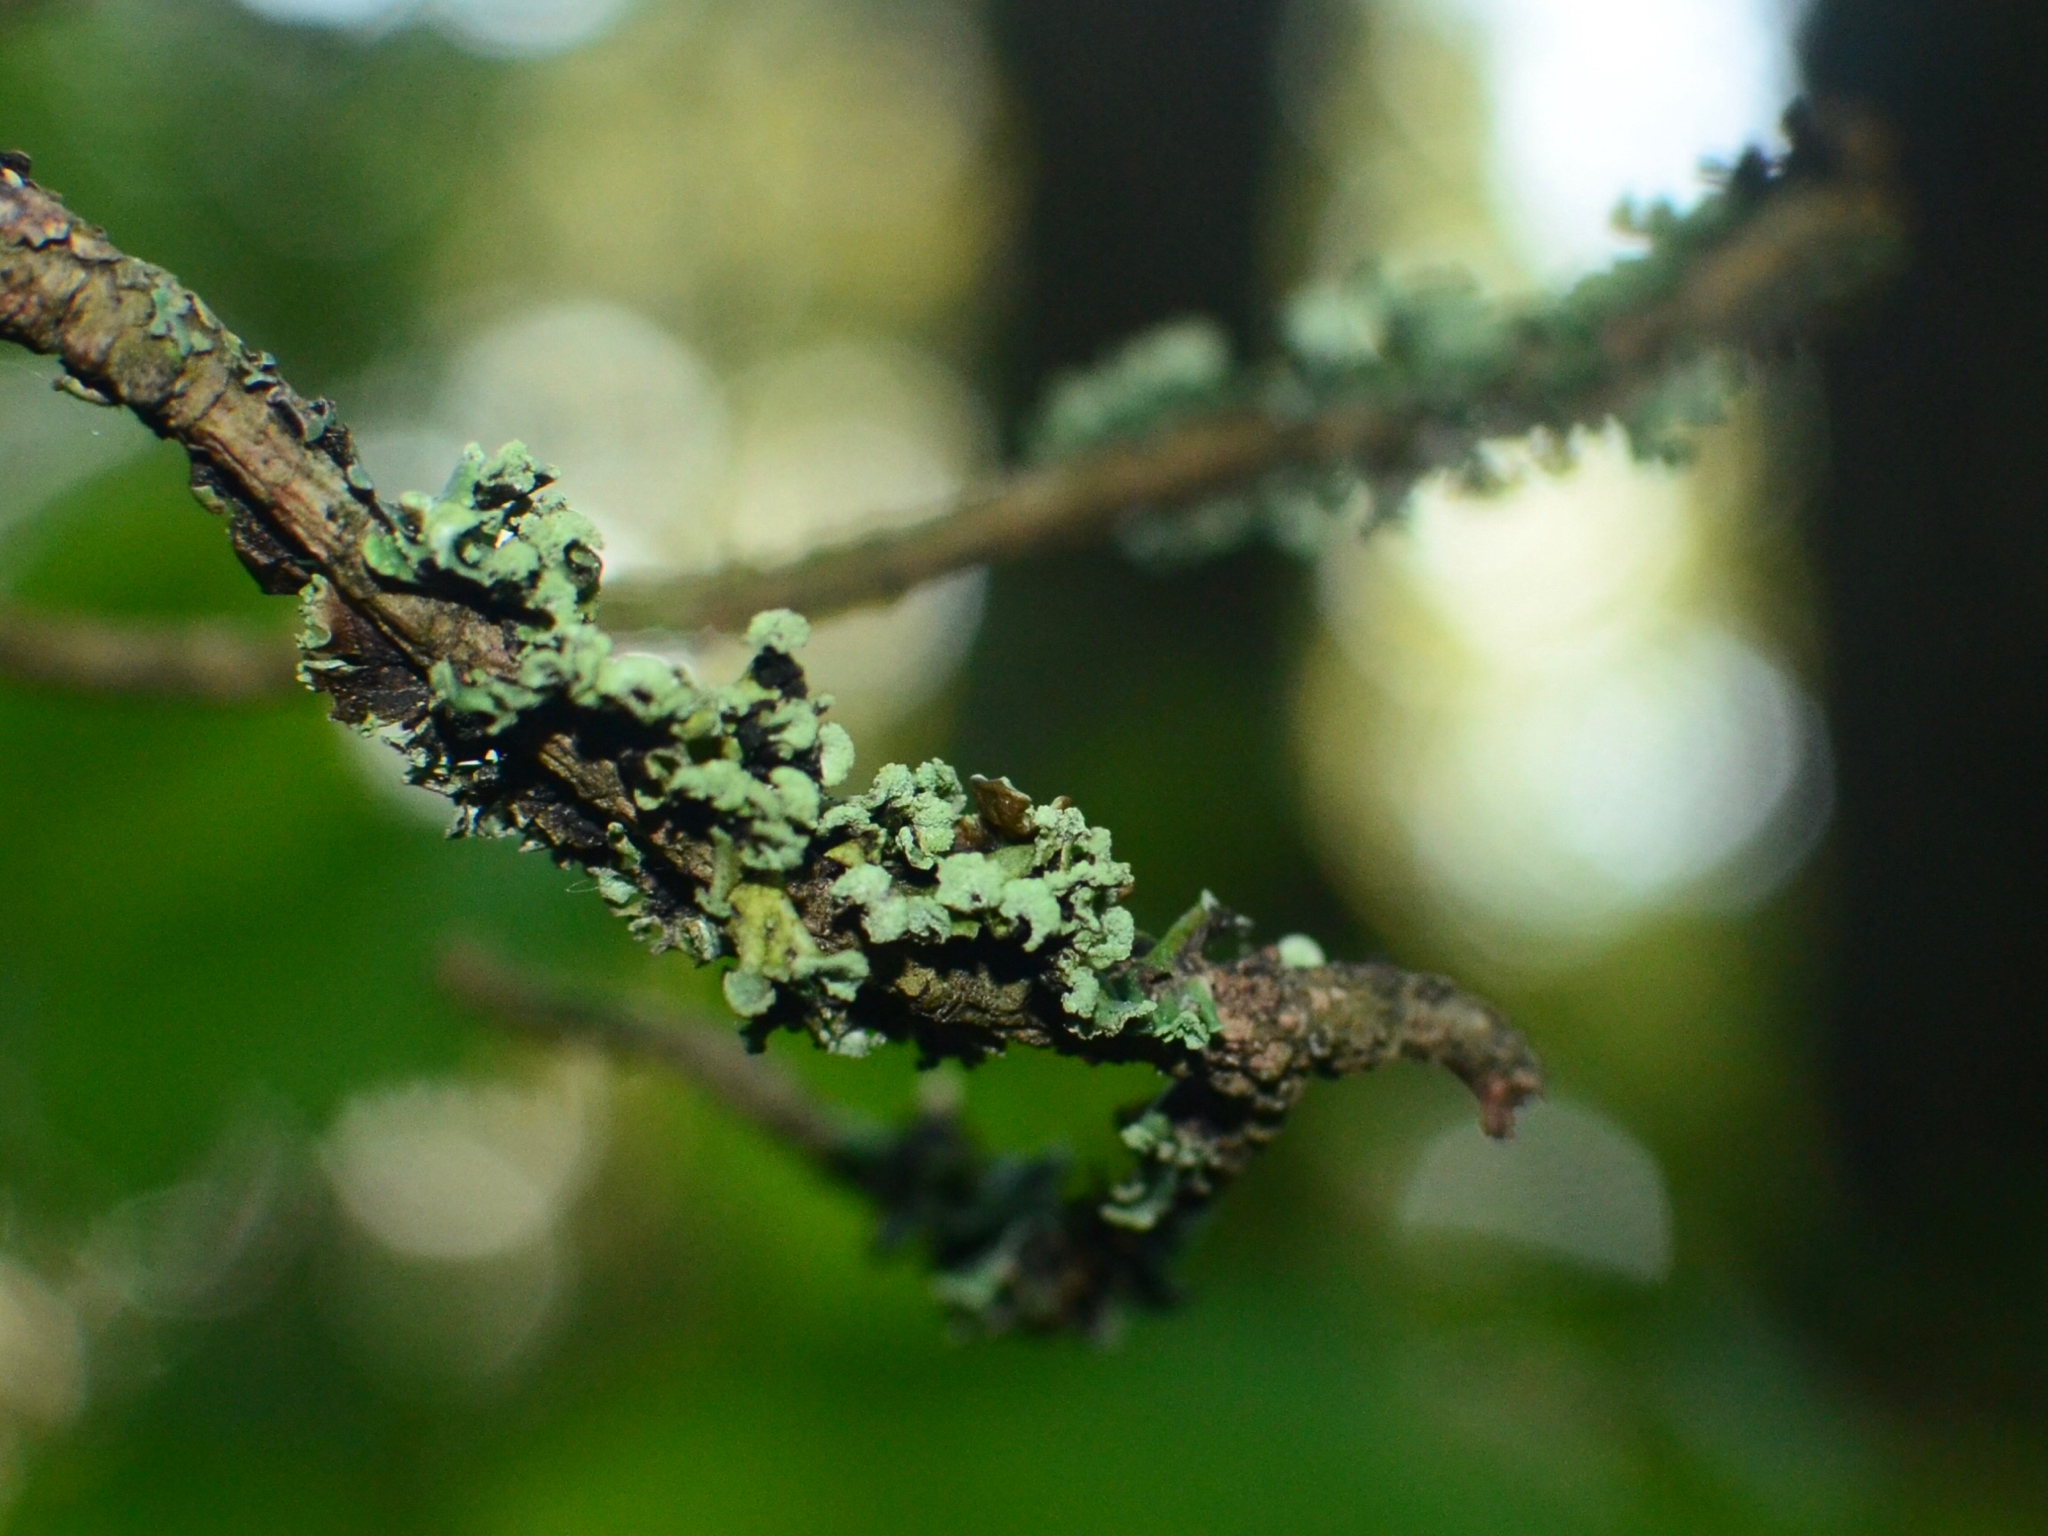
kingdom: Fungi
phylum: Ascomycota
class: Lecanoromycetes
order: Lecanorales
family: Parmeliaceae
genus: Hypogymnia
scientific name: Hypogymnia physodes
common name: Dark crottle
